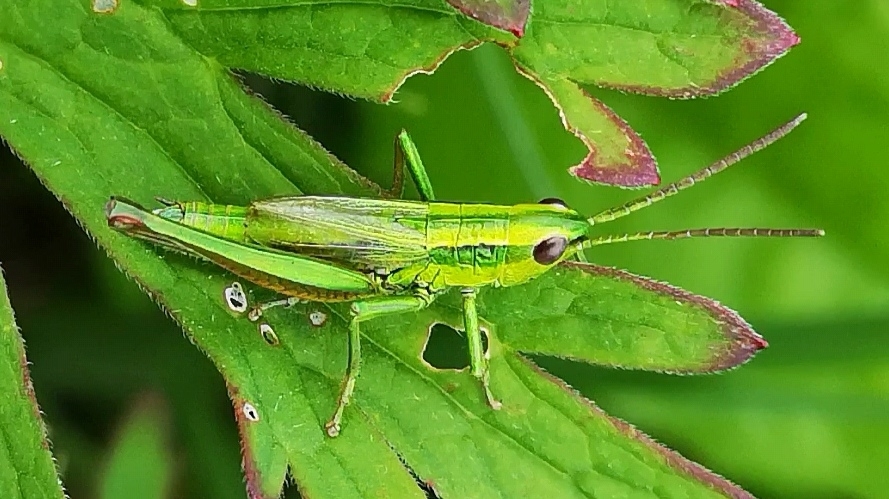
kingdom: Animalia
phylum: Arthropoda
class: Insecta
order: Orthoptera
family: Acrididae
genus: Euthystira
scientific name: Euthystira brachyptera
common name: Small gold grasshopper
